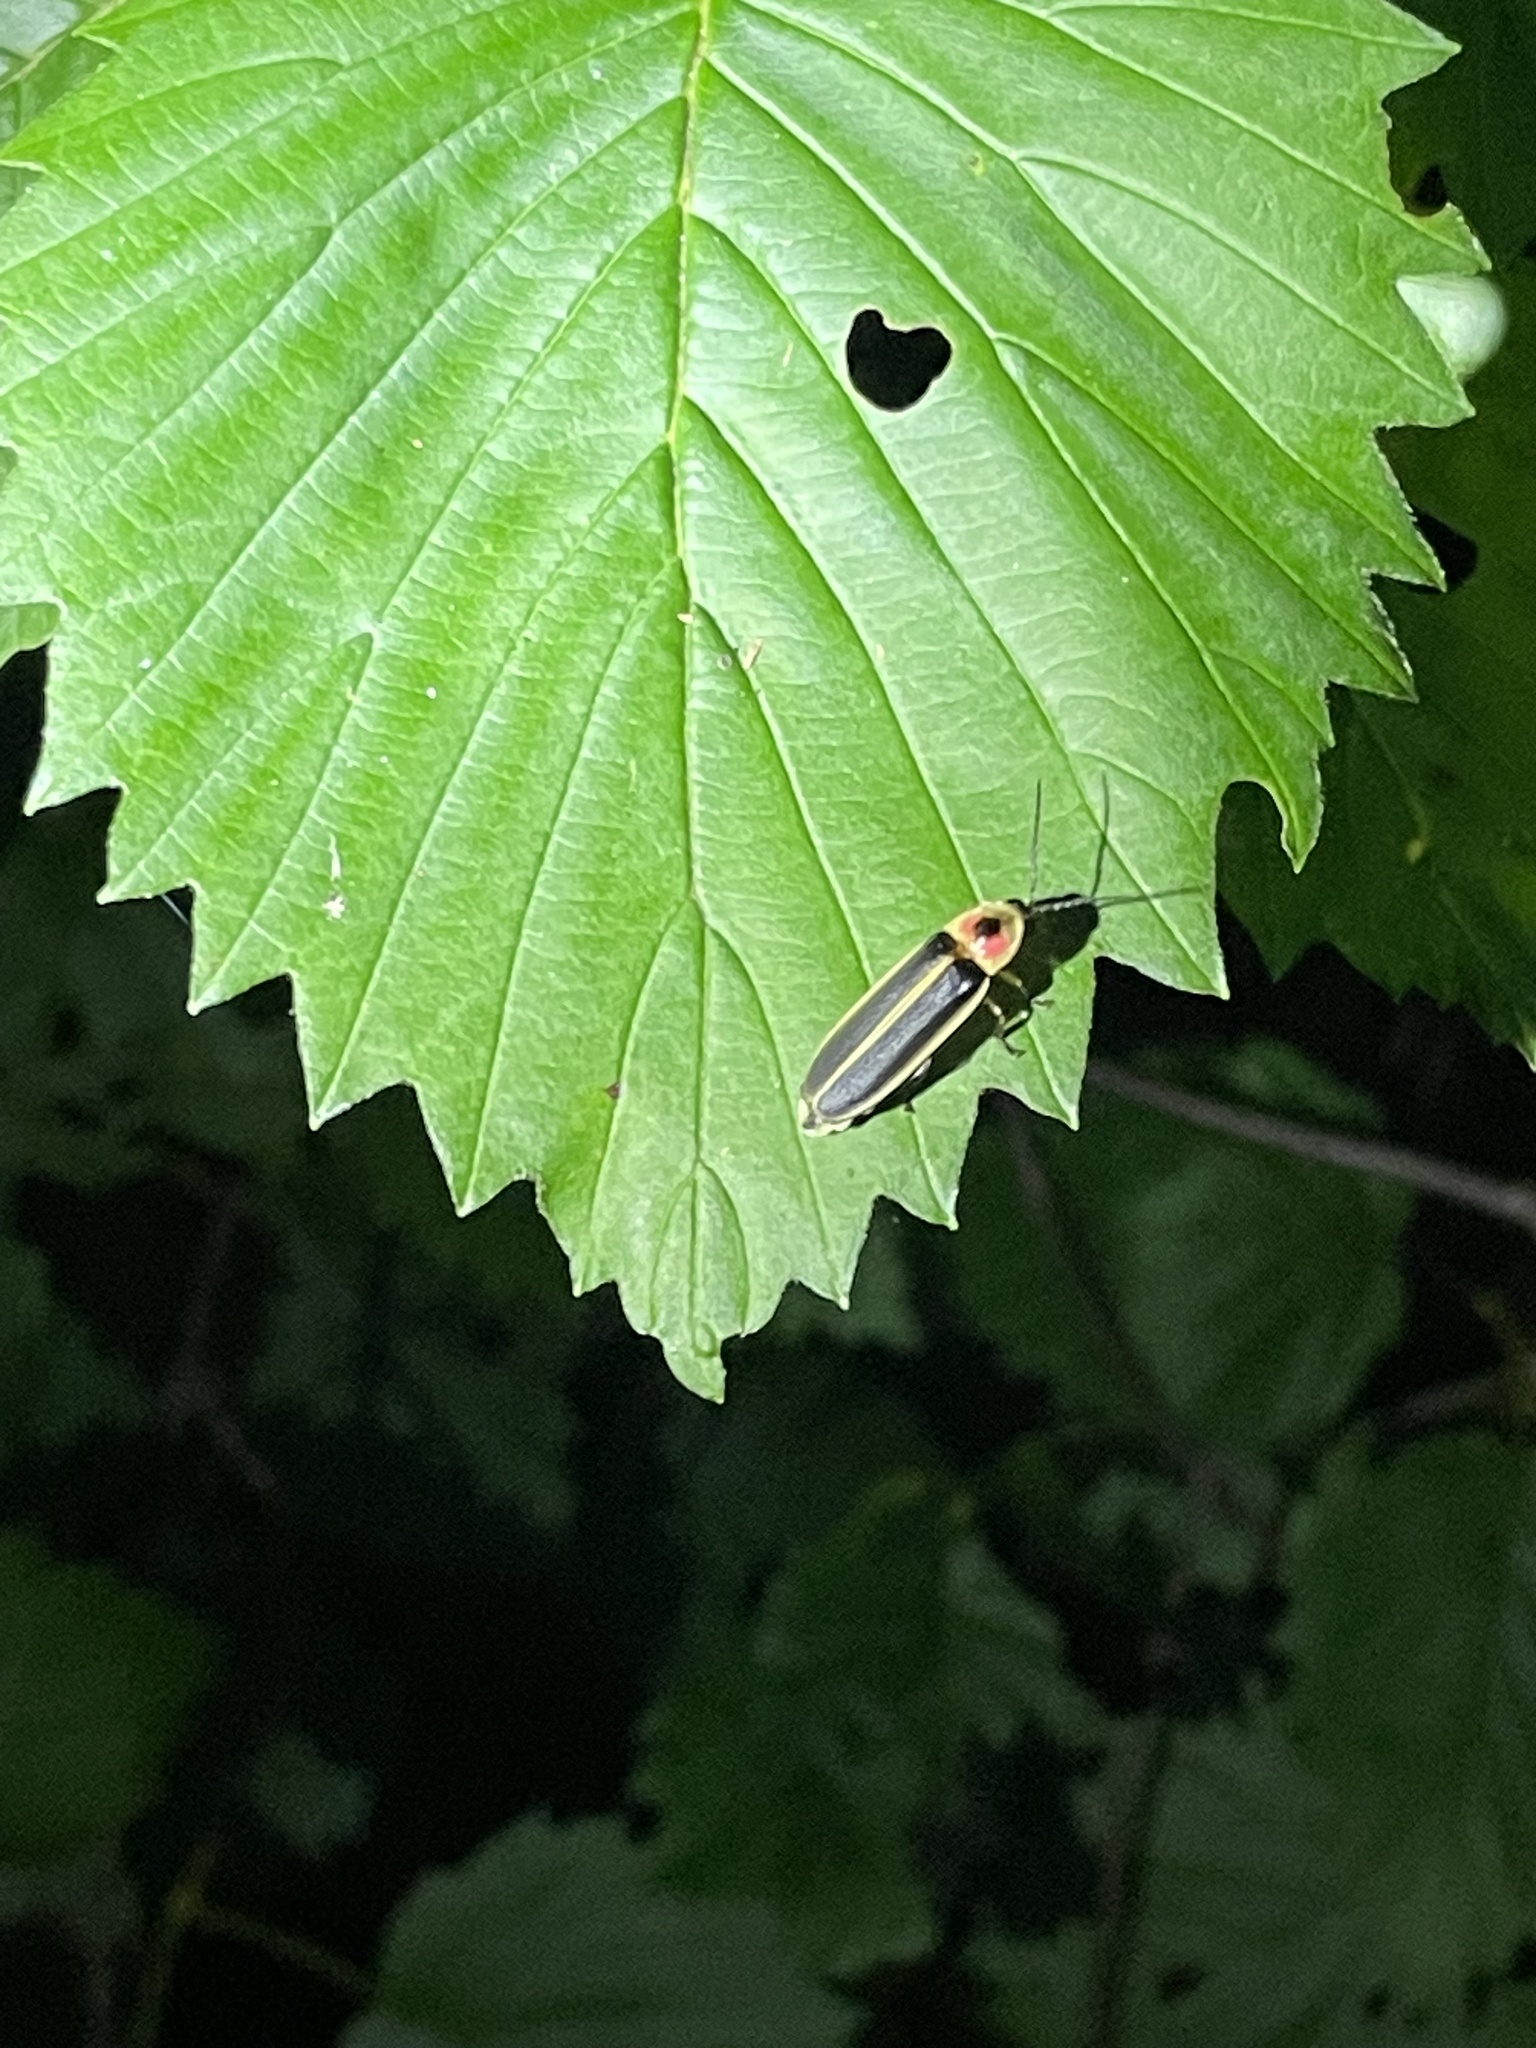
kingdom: Animalia
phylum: Arthropoda
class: Insecta
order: Coleoptera
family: Lampyridae
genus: Photinus
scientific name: Photinus pyralis
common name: Big dipper firefly
